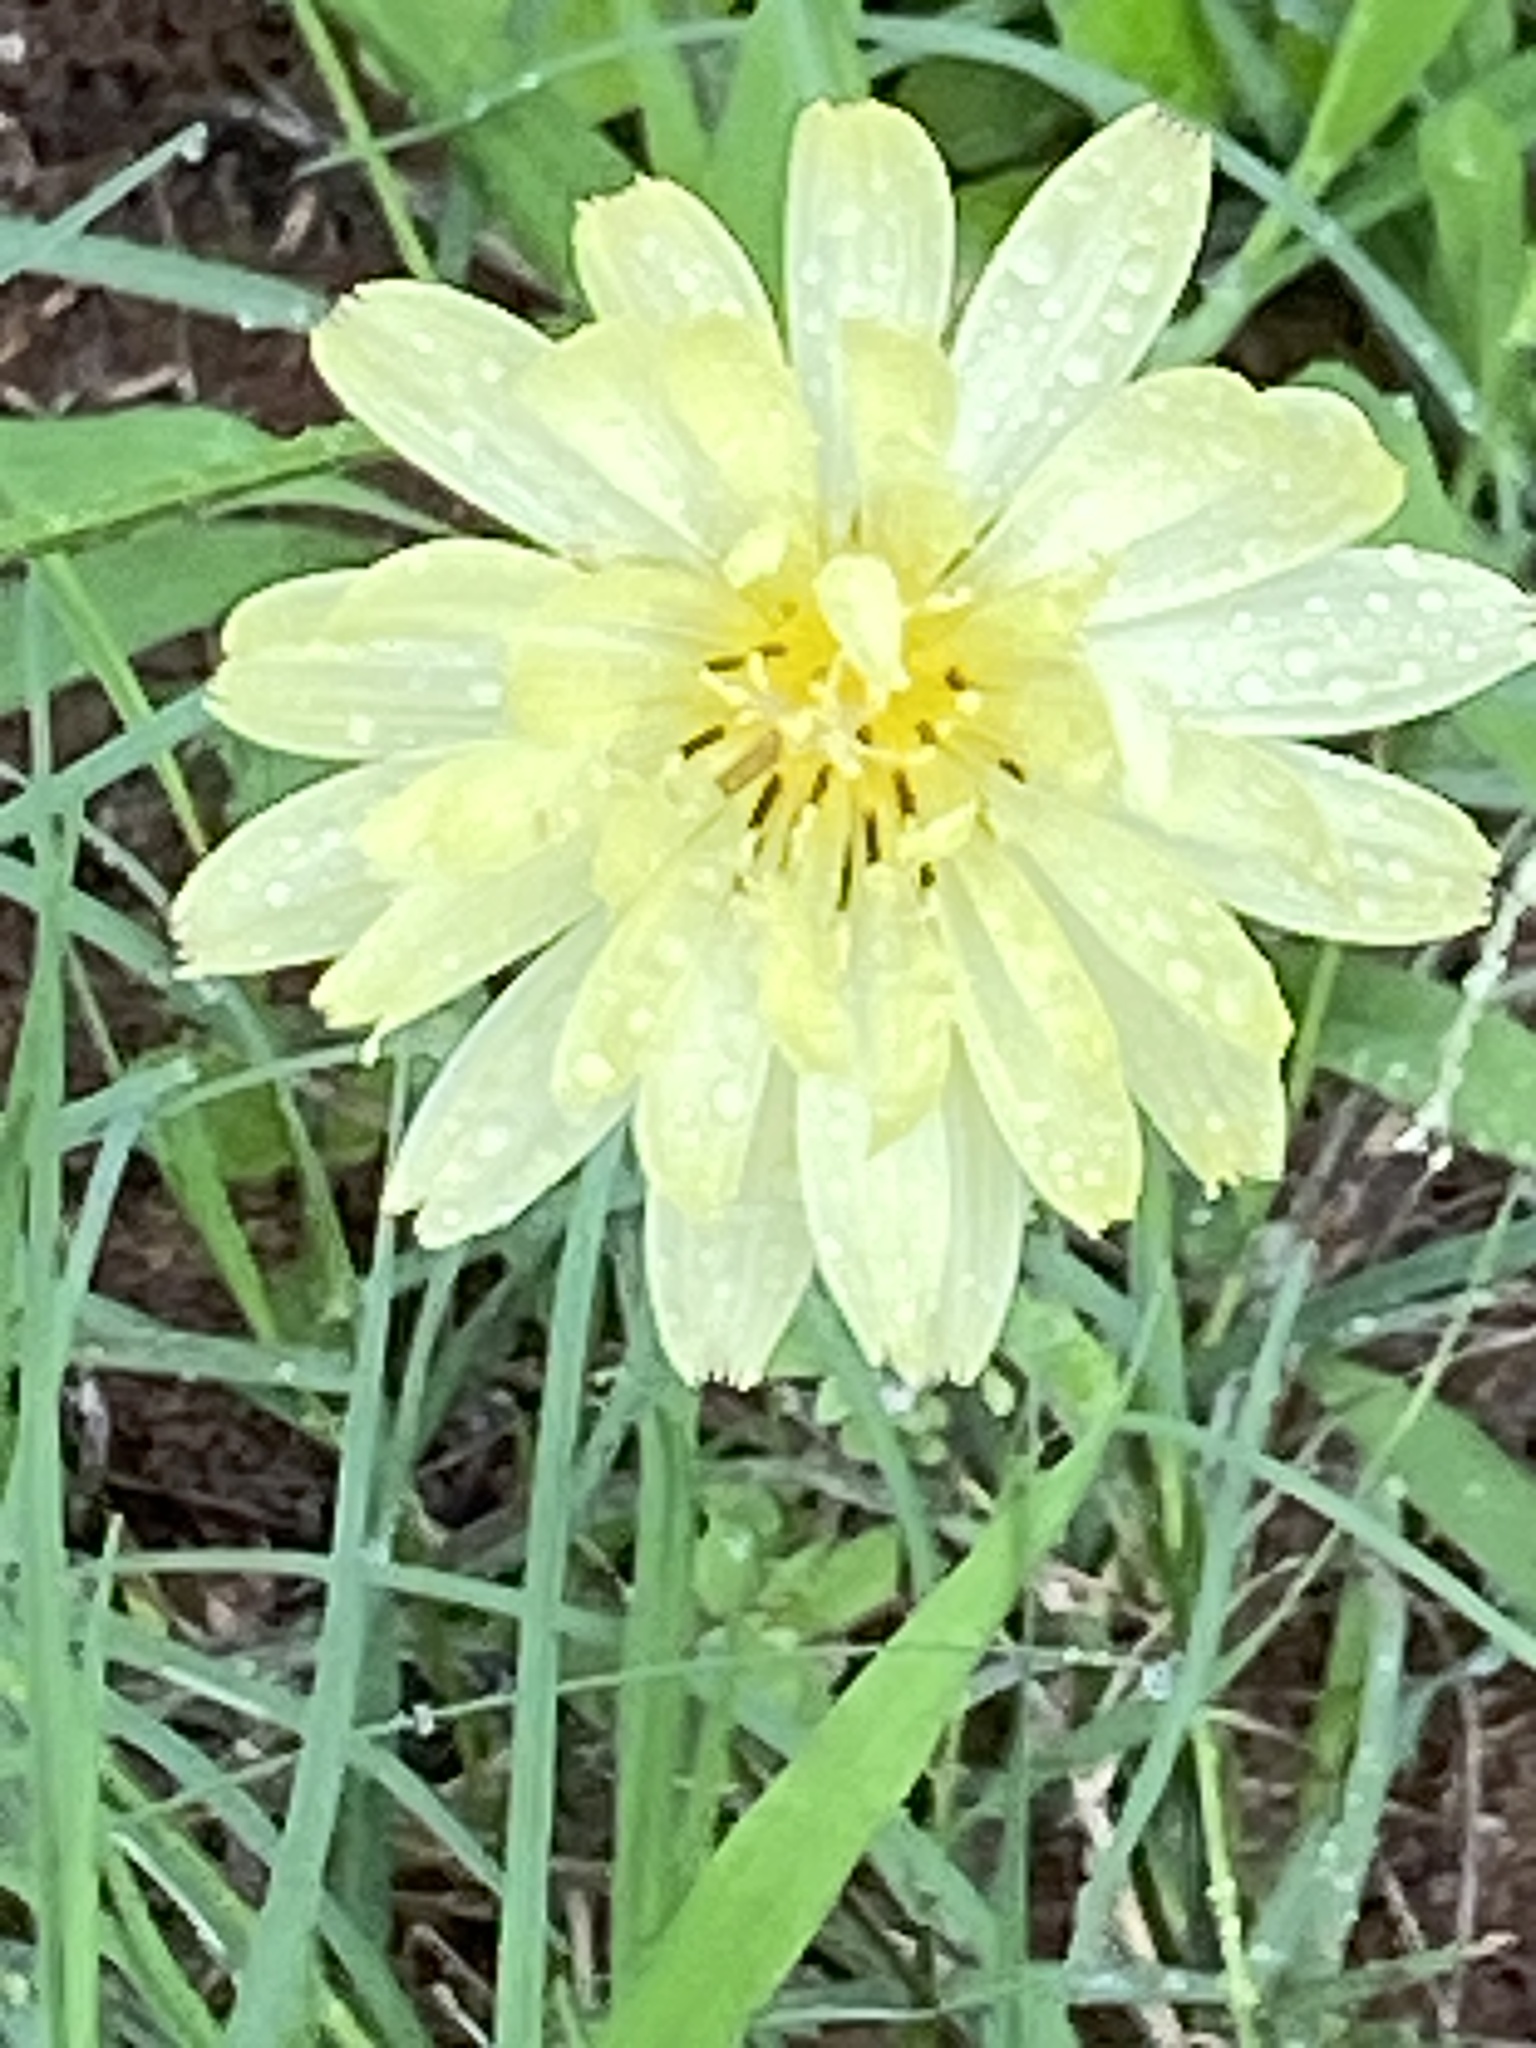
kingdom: Plantae
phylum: Tracheophyta
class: Magnoliopsida
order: Asterales
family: Asteraceae
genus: Pyrrhopappus
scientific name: Pyrrhopappus pauciflorus
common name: Texas false dandelion
